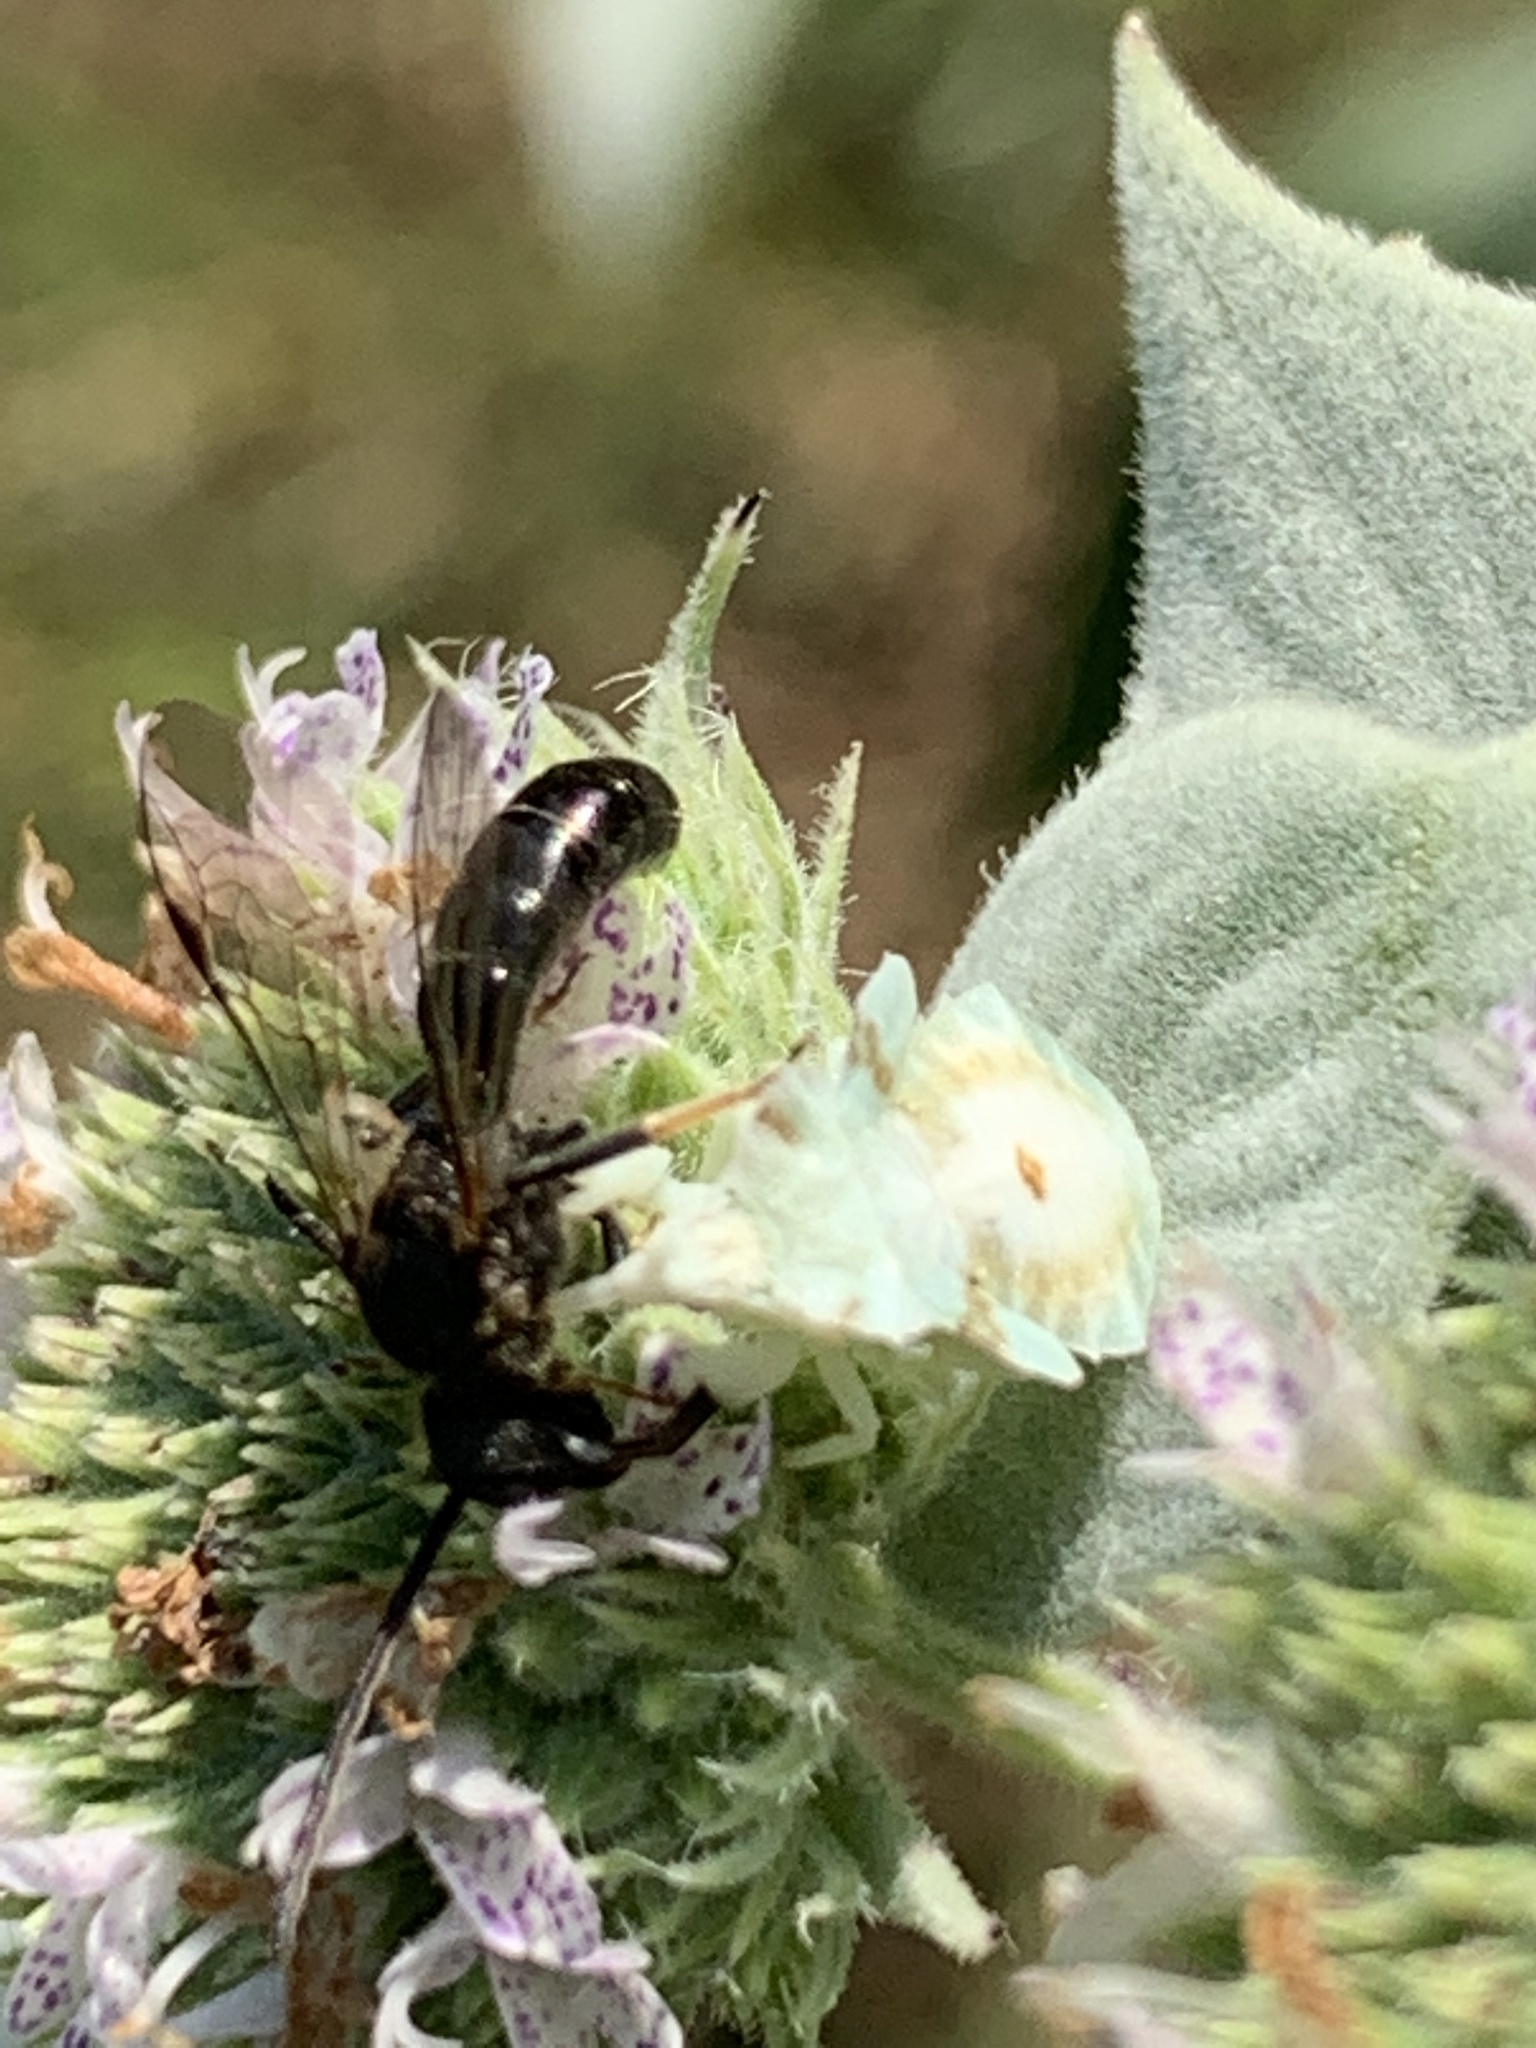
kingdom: Animalia
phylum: Arthropoda
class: Insecta
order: Hymenoptera
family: Halictidae
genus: Dialictus
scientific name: Dialictus
